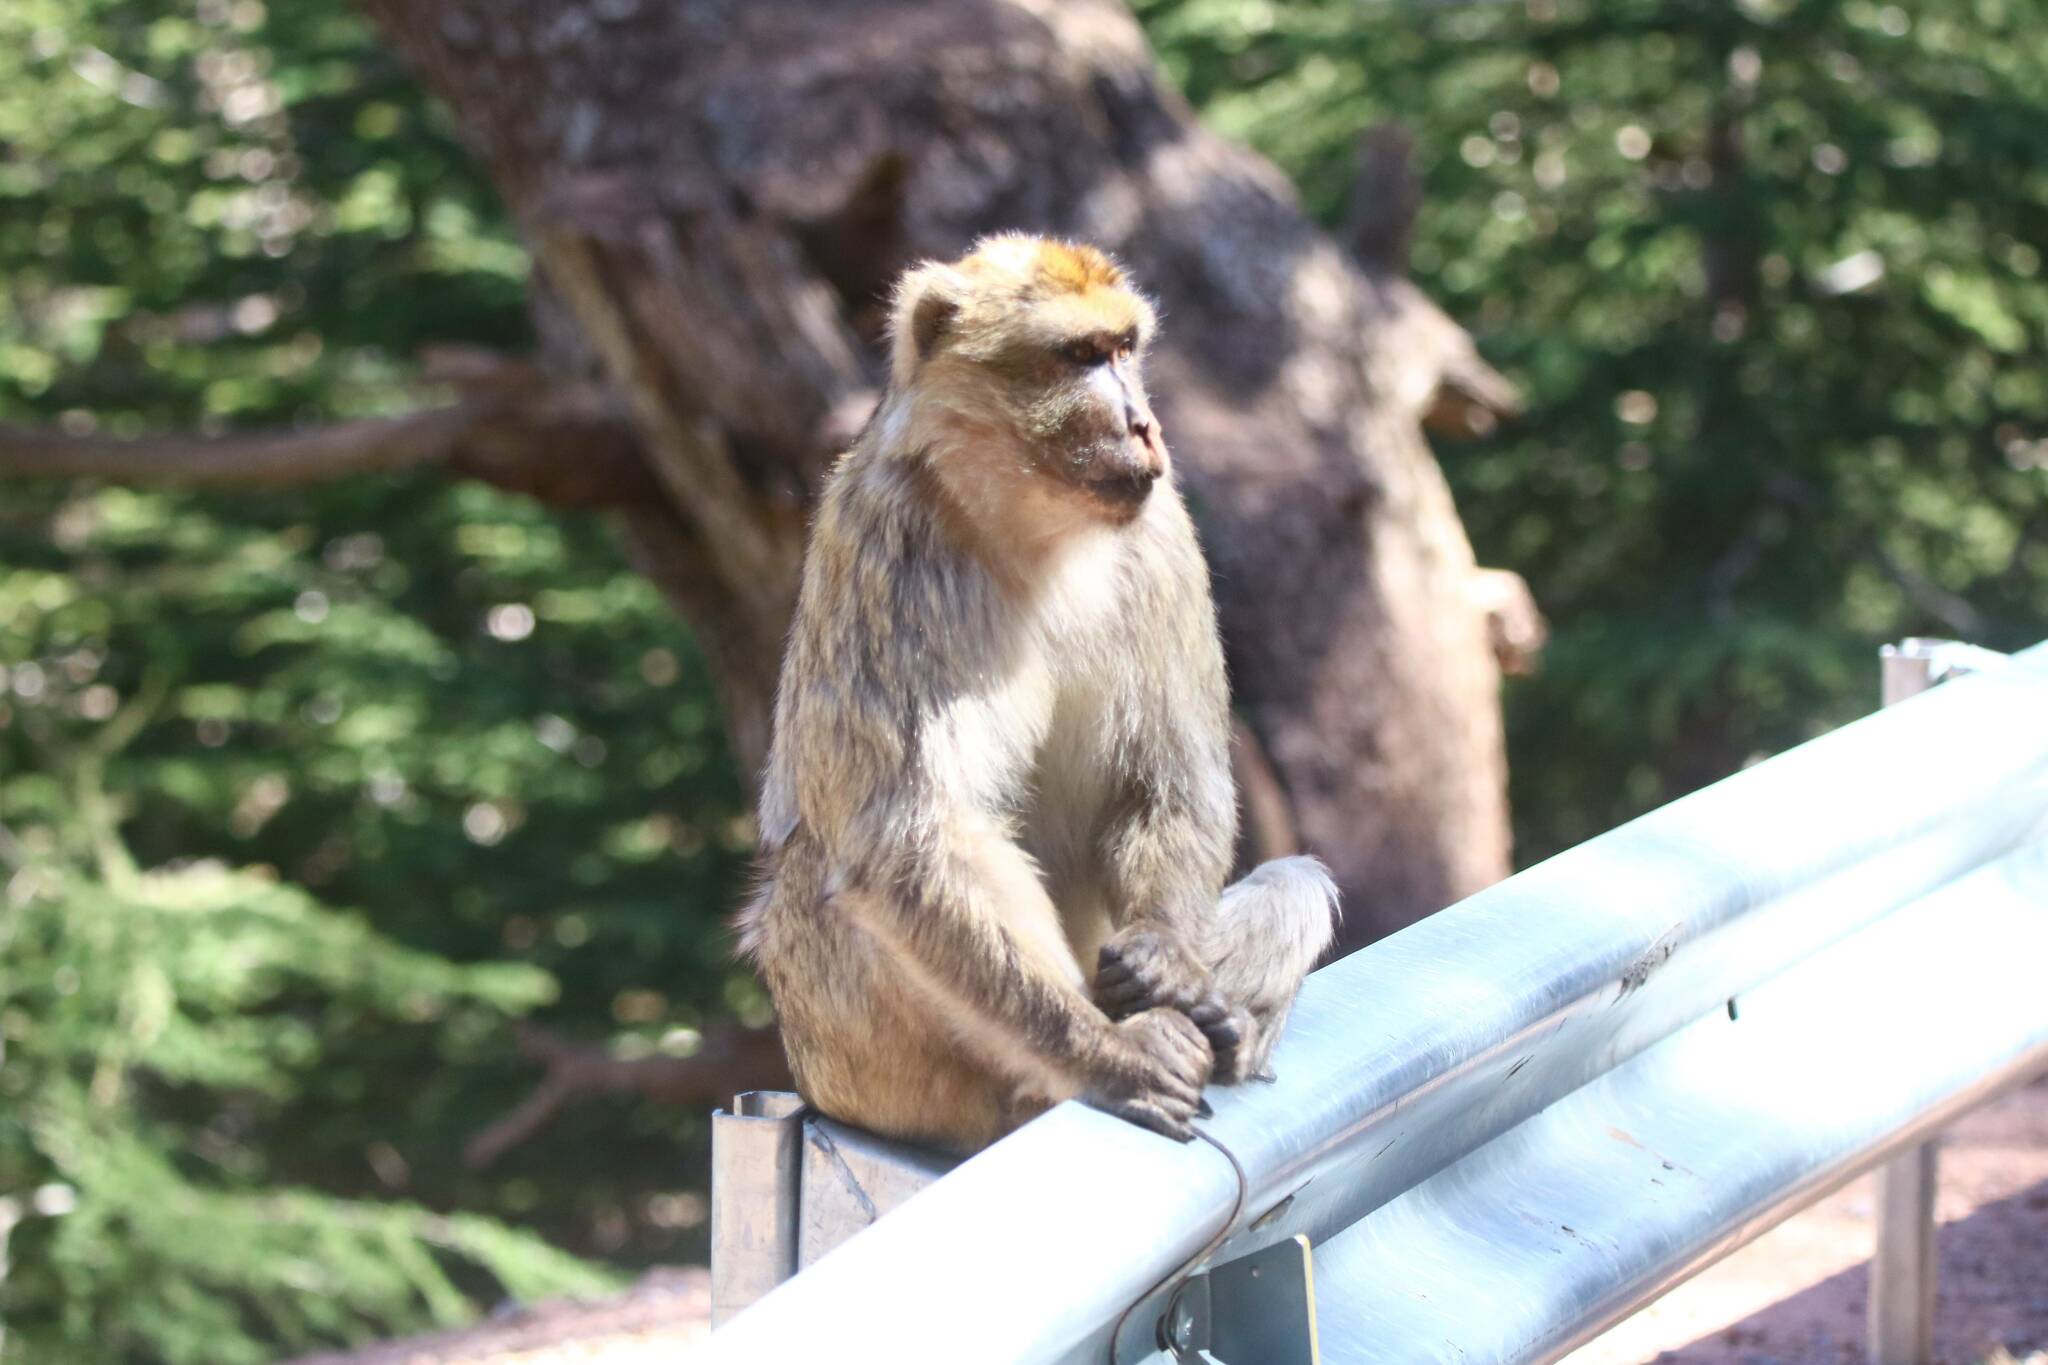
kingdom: Animalia
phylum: Chordata
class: Mammalia
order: Primates
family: Cercopithecidae
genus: Macaca
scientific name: Macaca sylvanus
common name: Barbary macaque
